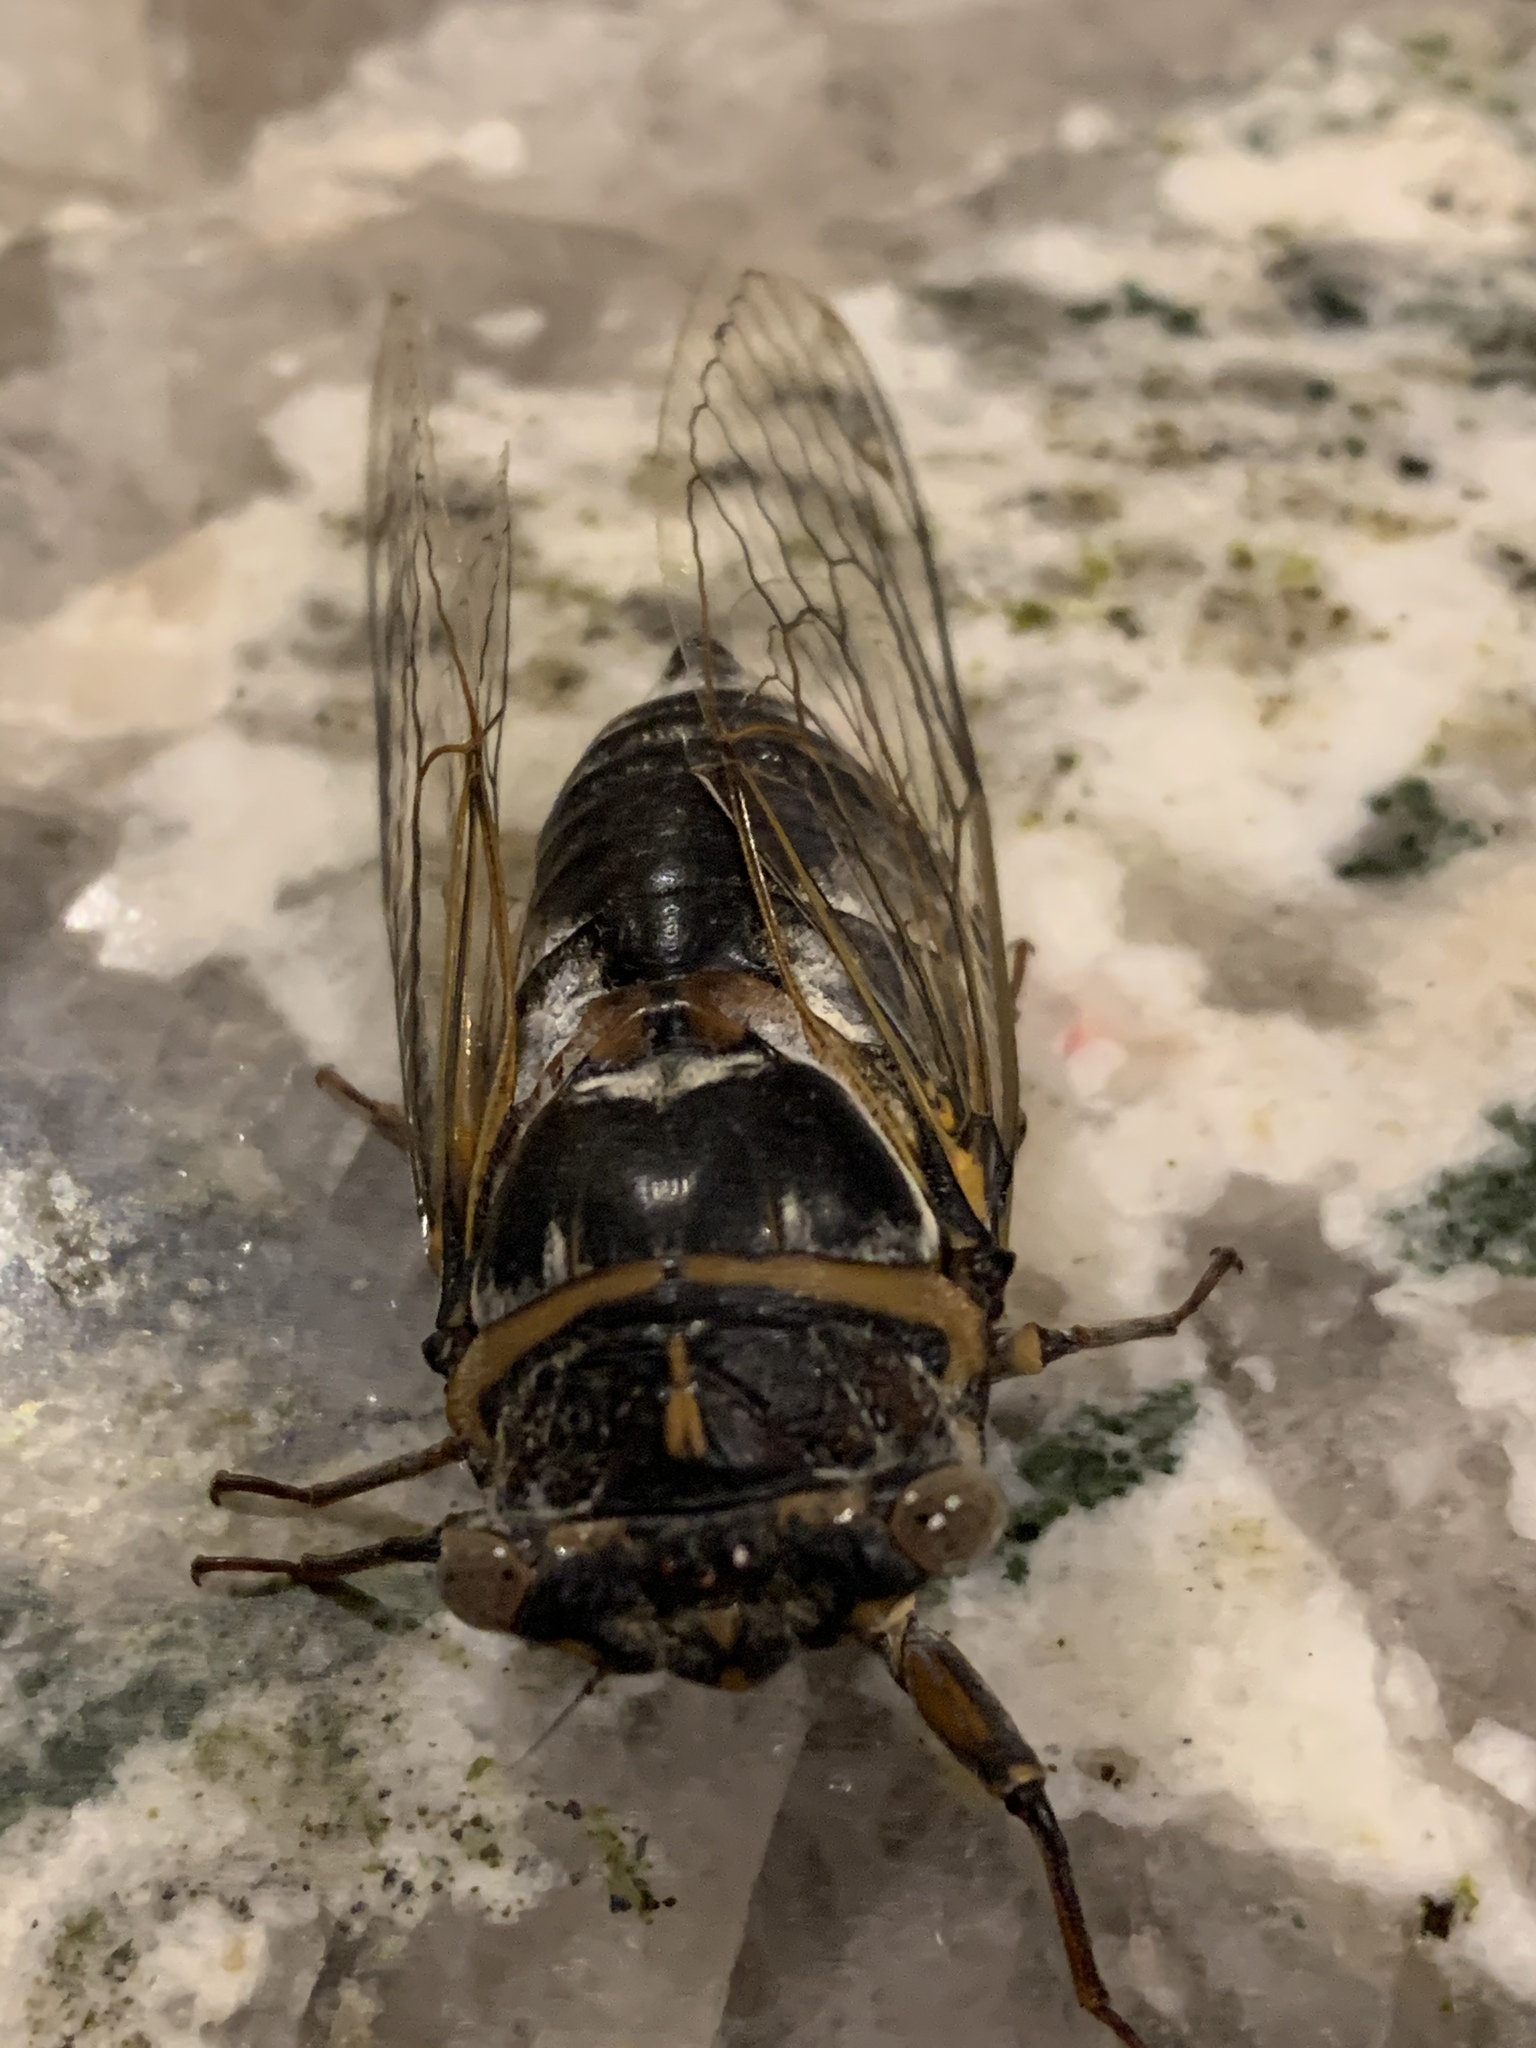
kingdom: Animalia
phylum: Arthropoda
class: Insecta
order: Hemiptera
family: Cicadidae
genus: Lyristes
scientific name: Lyristes plebejus
